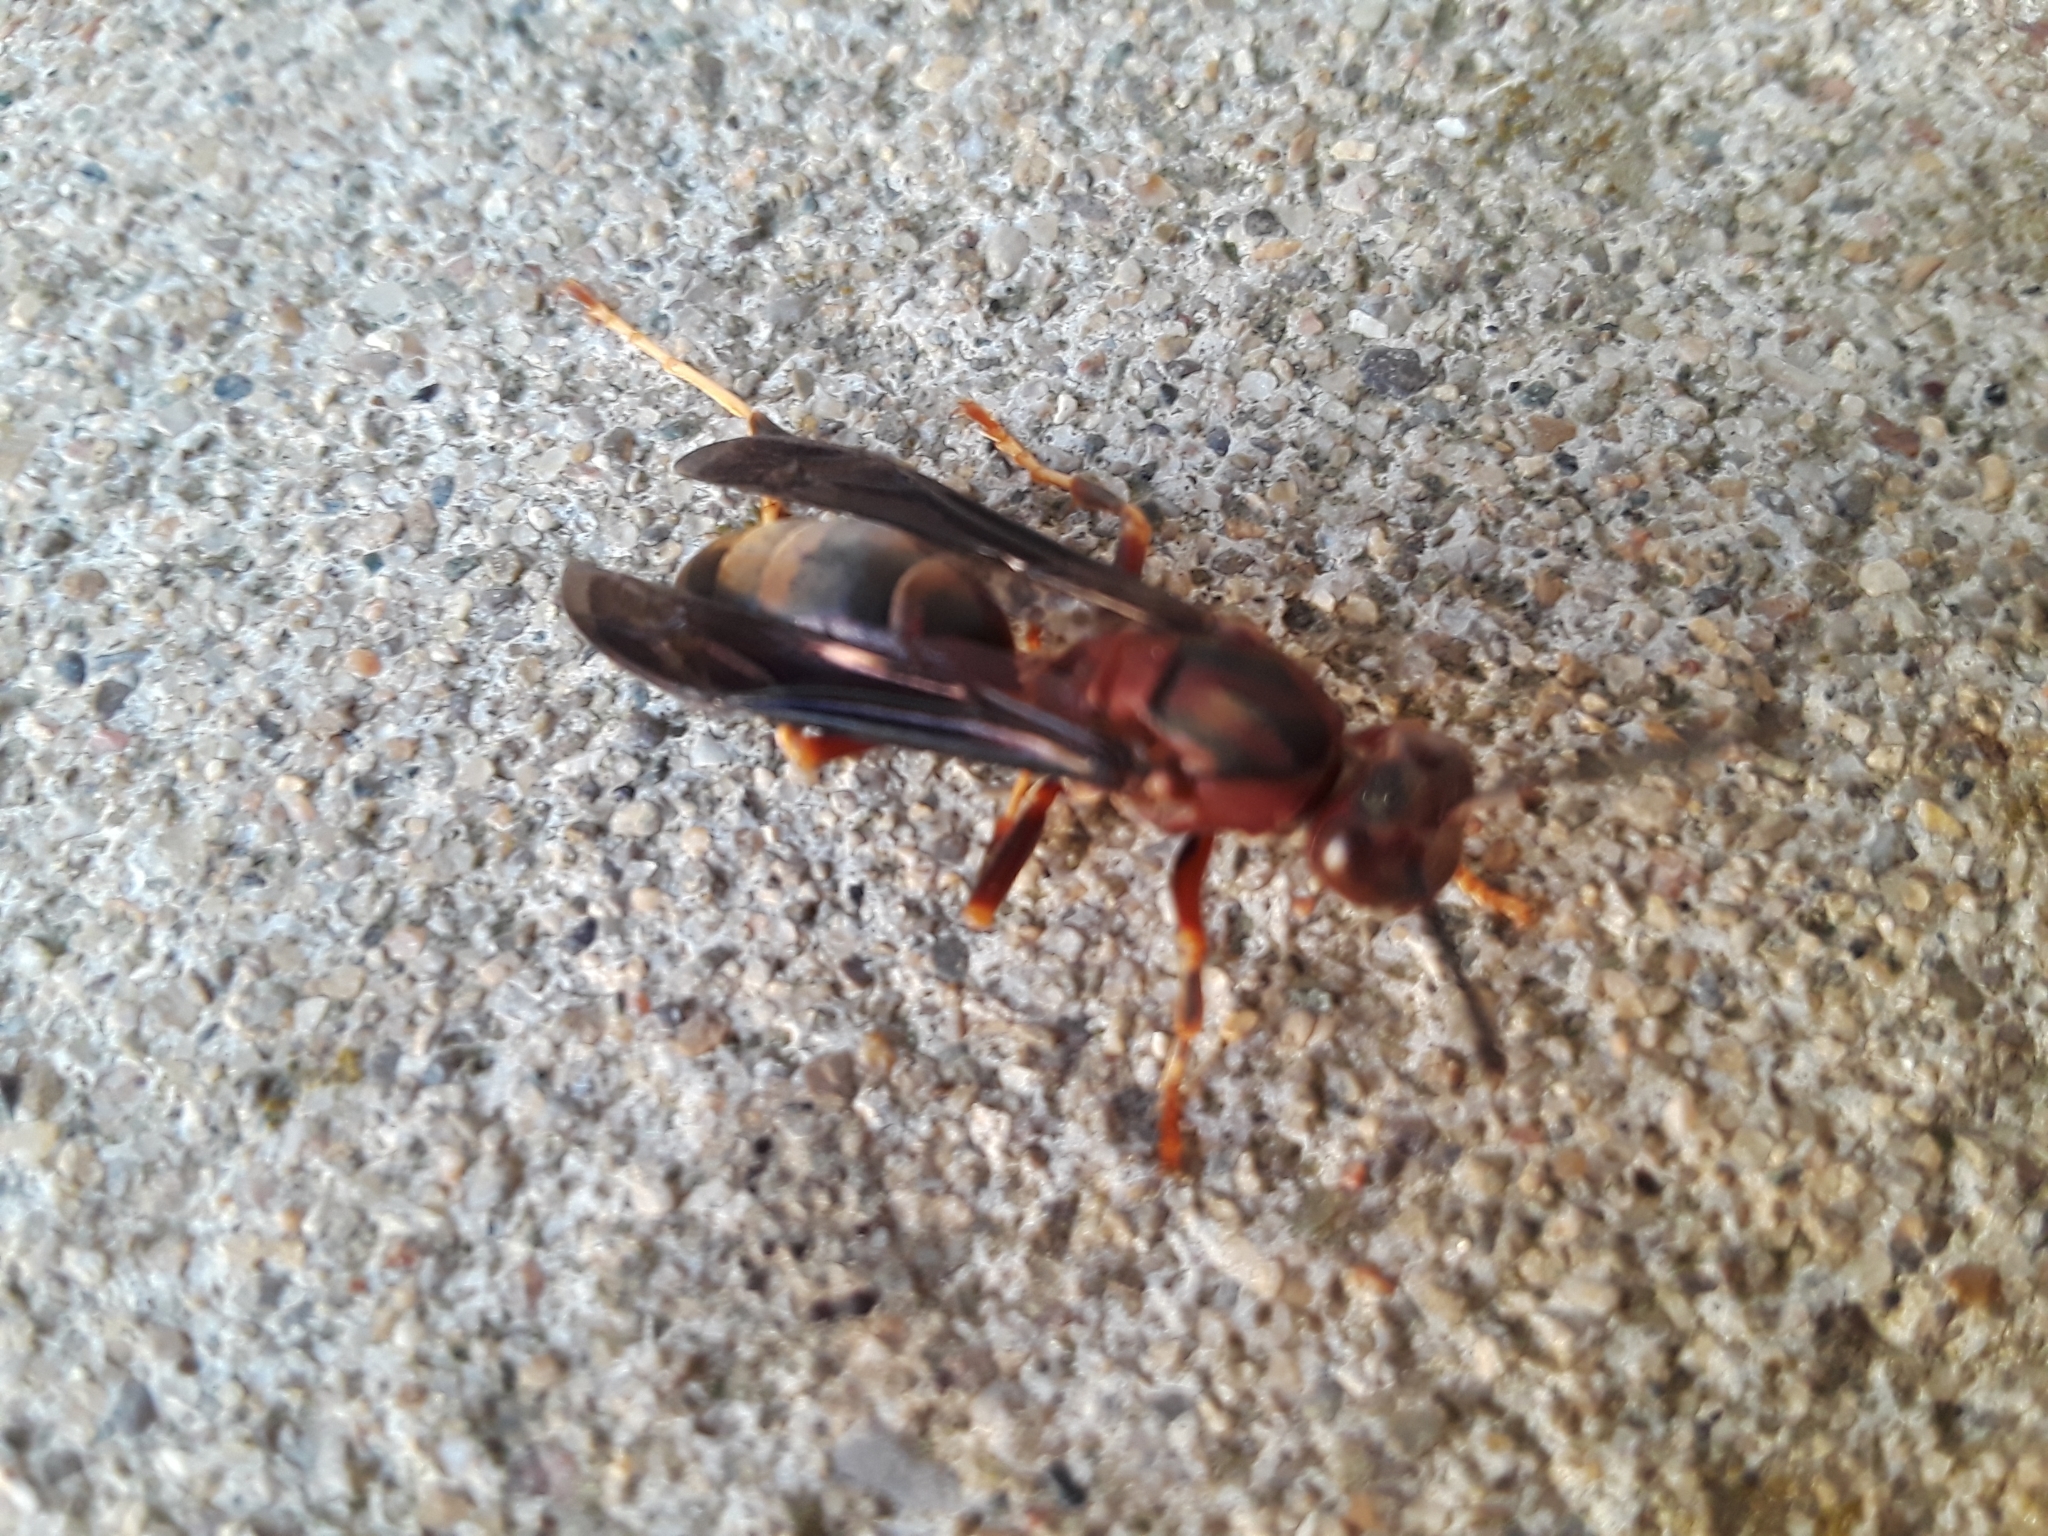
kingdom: Animalia
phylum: Arthropoda
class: Insecta
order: Hymenoptera
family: Eumenidae
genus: Polistes
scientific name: Polistes metricus
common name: Metric paper wasp
